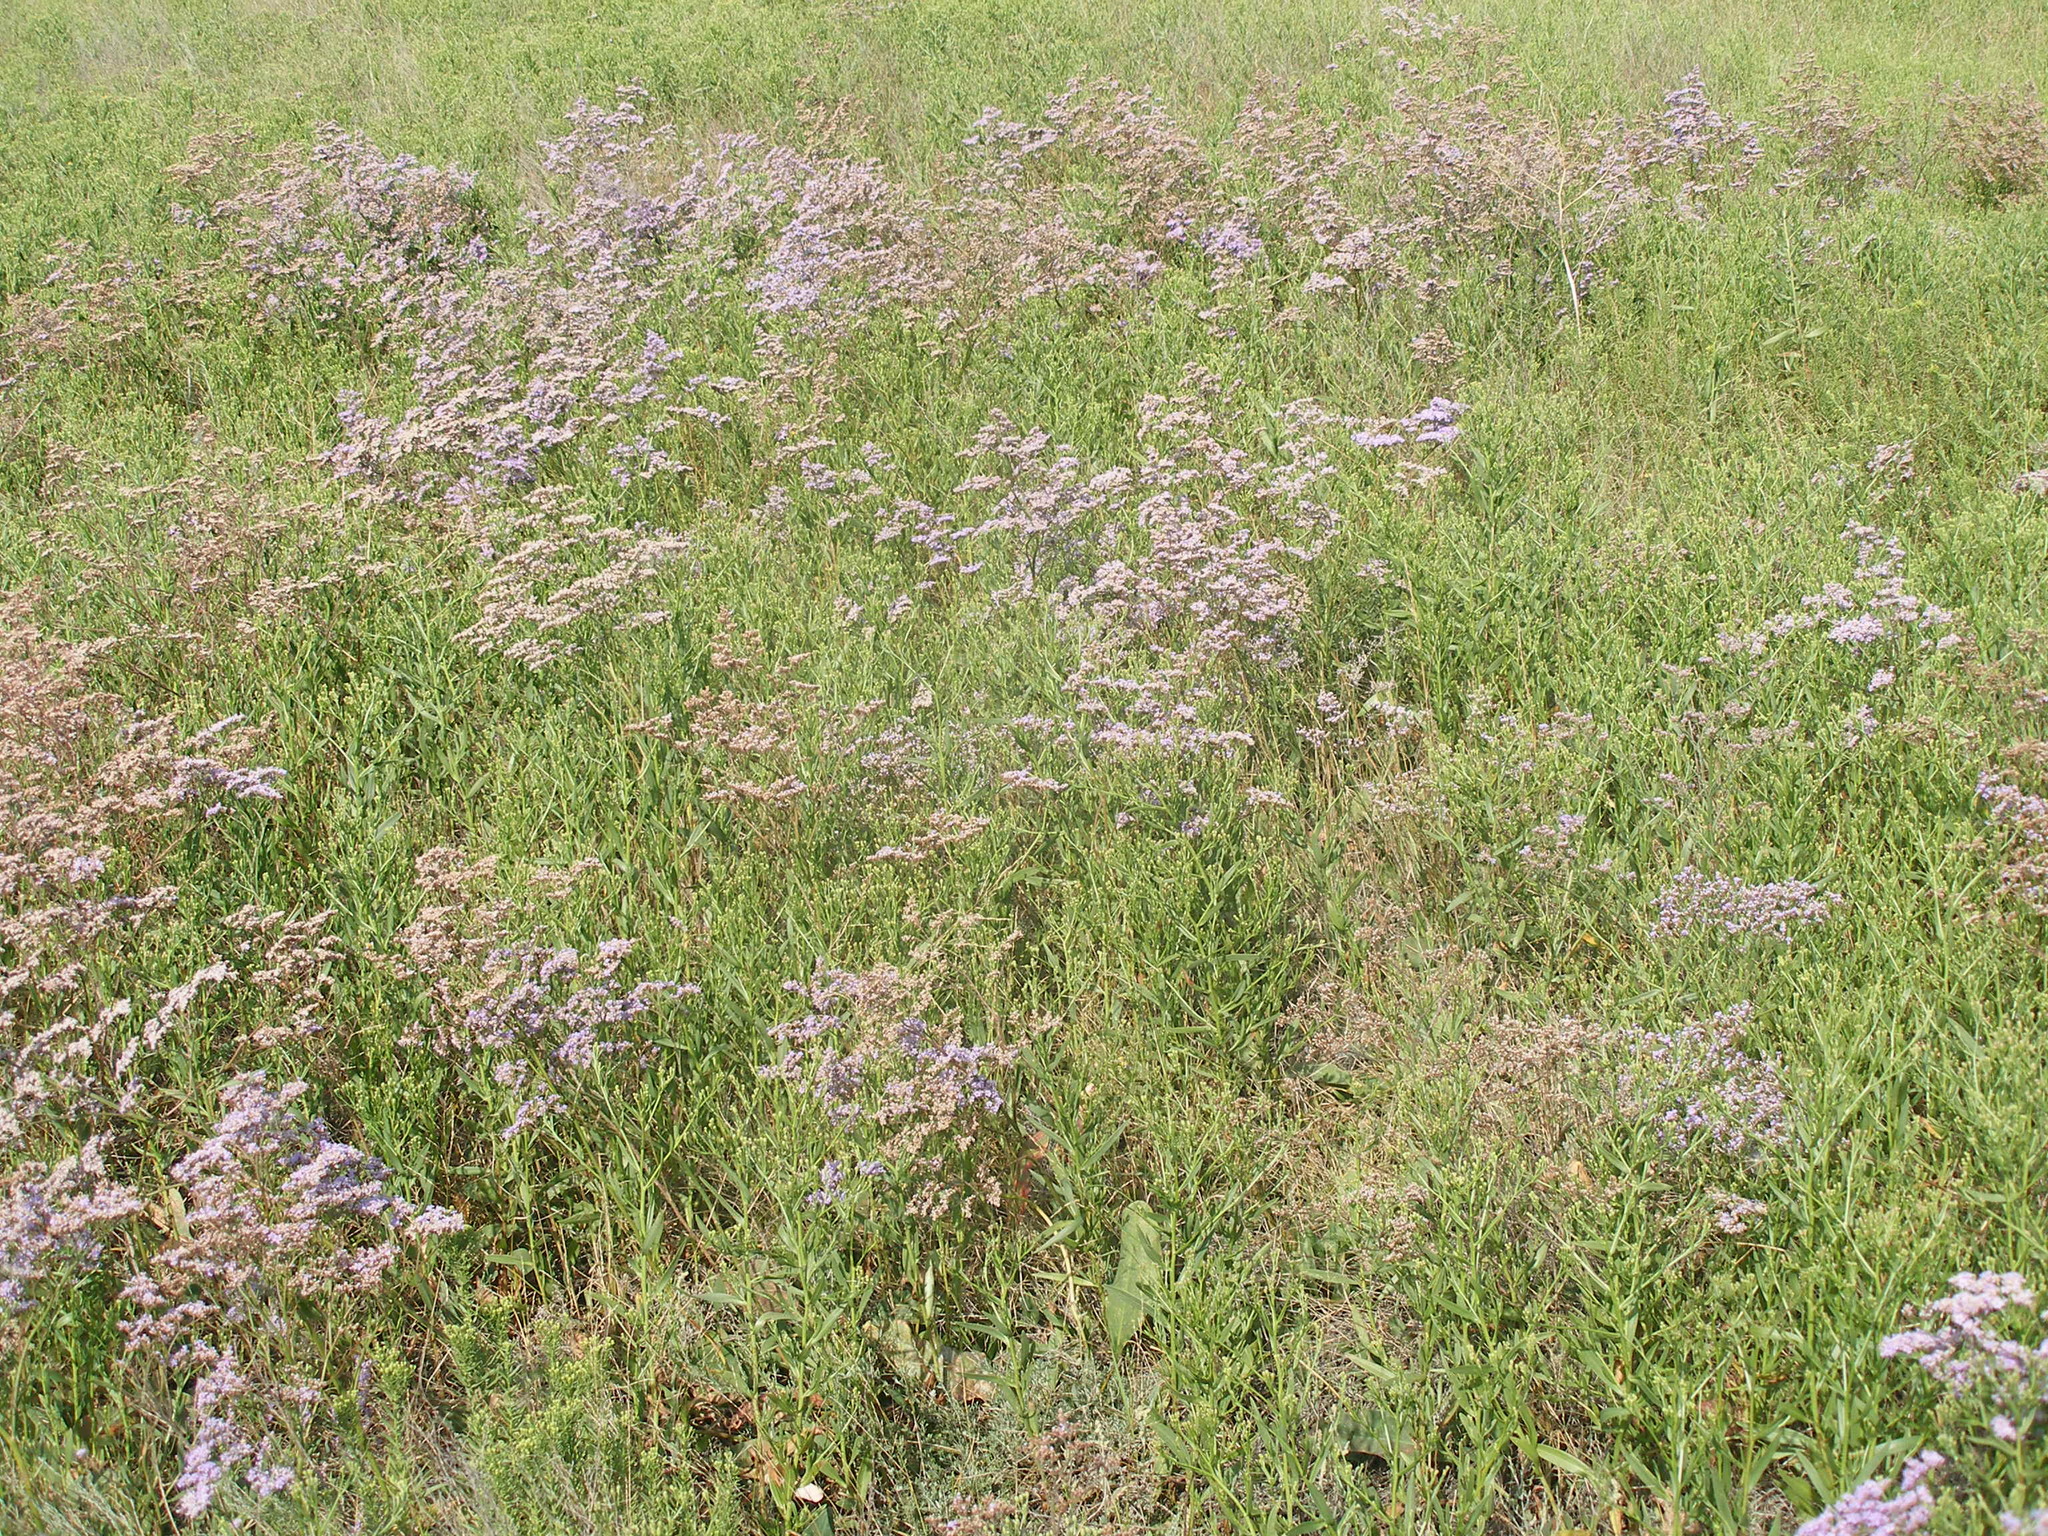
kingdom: Plantae
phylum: Tracheophyta
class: Magnoliopsida
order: Caryophyllales
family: Plumbaginaceae
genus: Limonium
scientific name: Limonium gmelini
